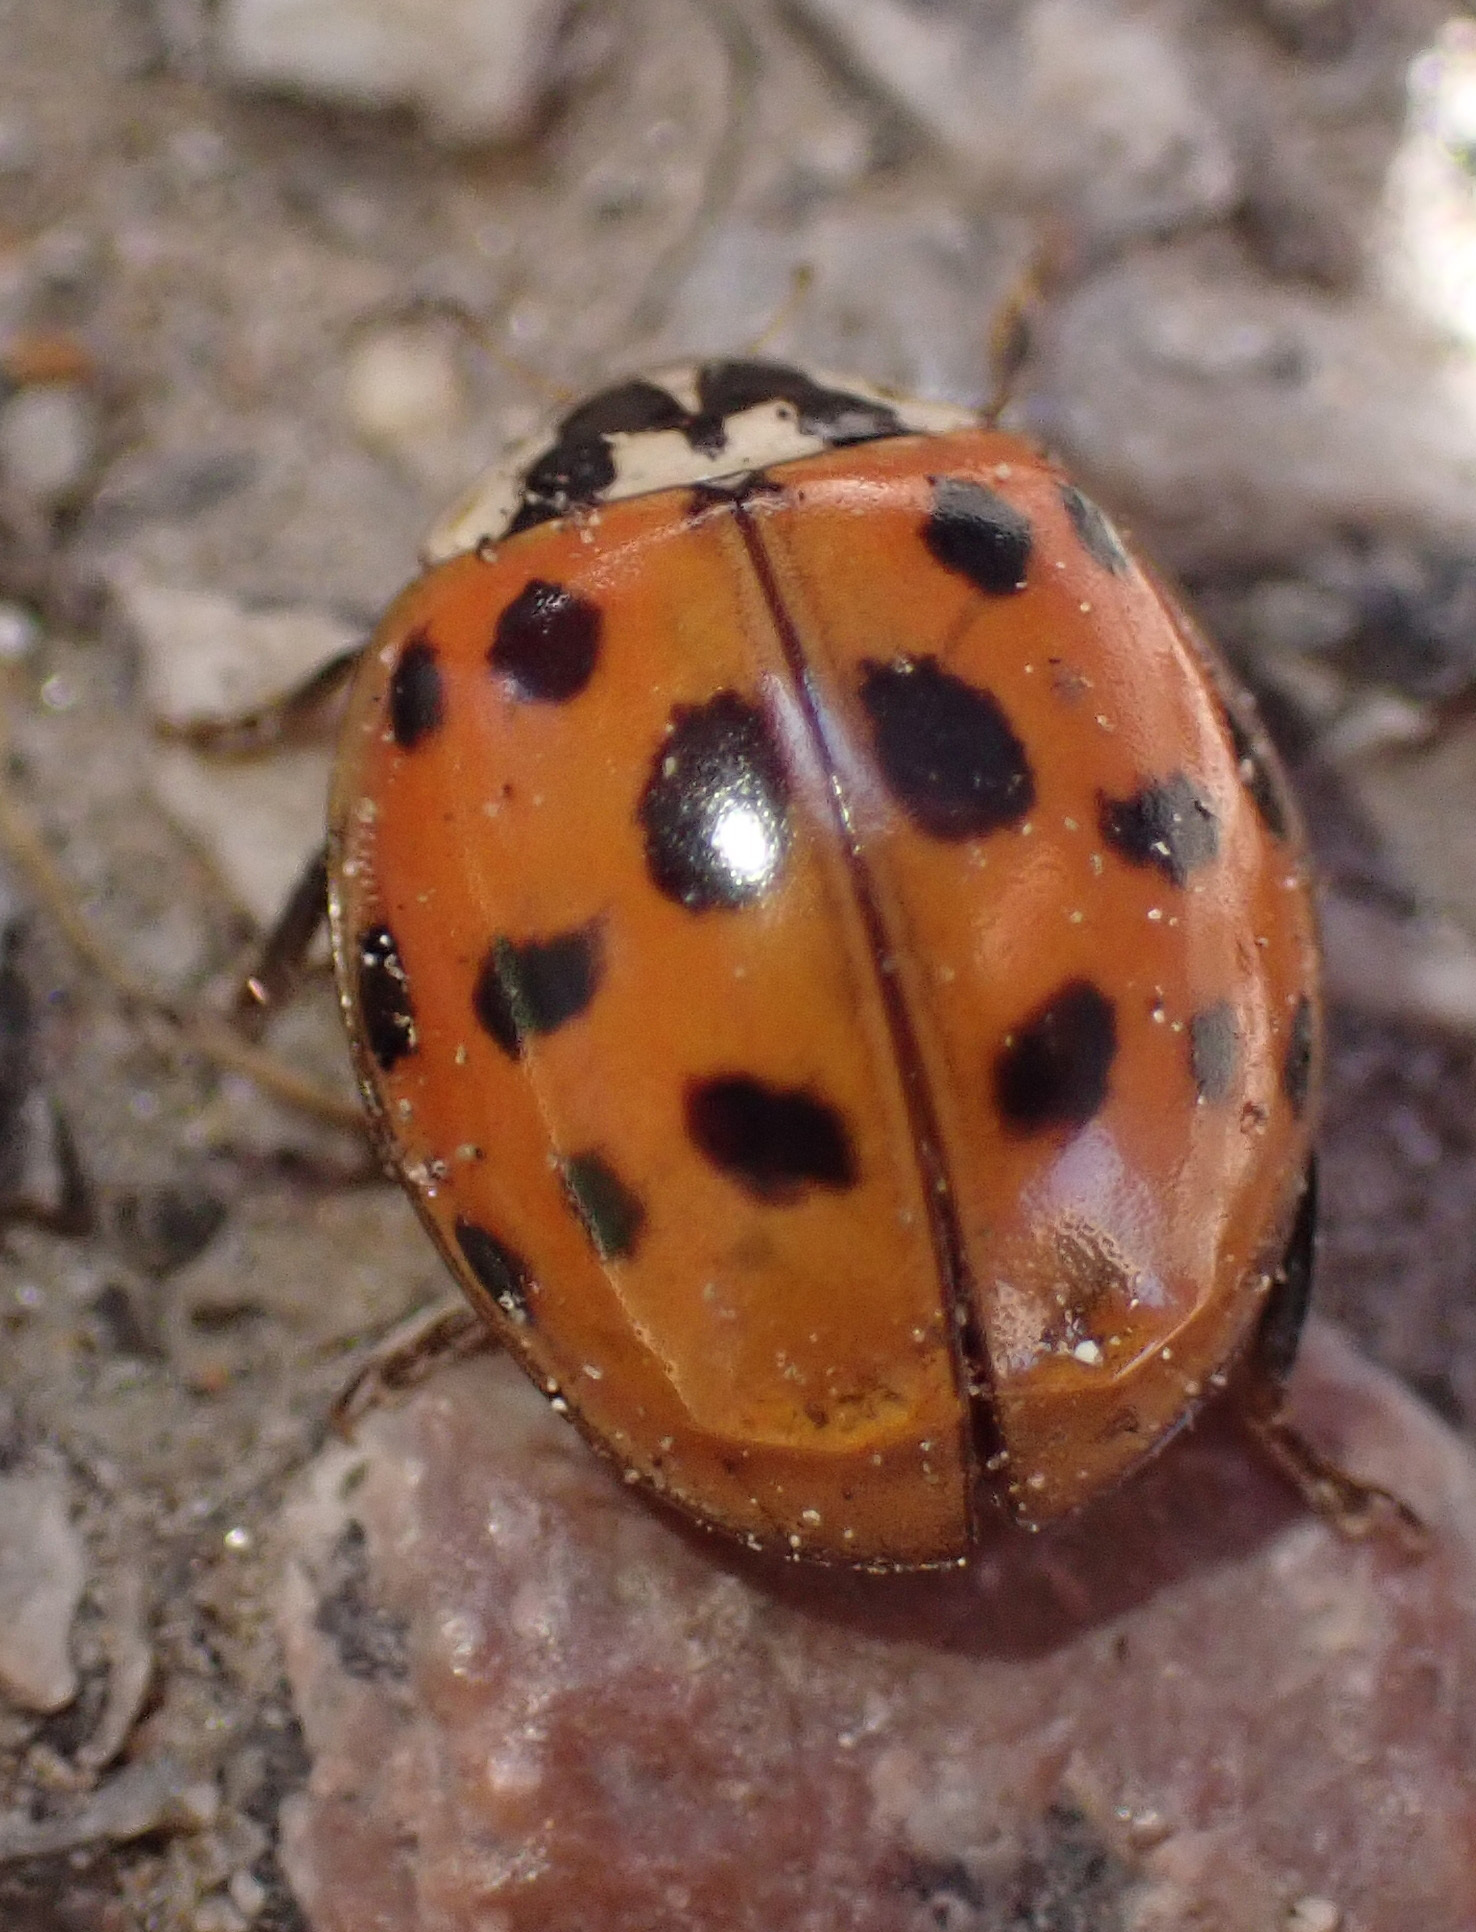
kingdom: Animalia
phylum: Arthropoda
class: Insecta
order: Coleoptera
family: Coccinellidae
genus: Harmonia
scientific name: Harmonia axyridis
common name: Harlequin ladybird
